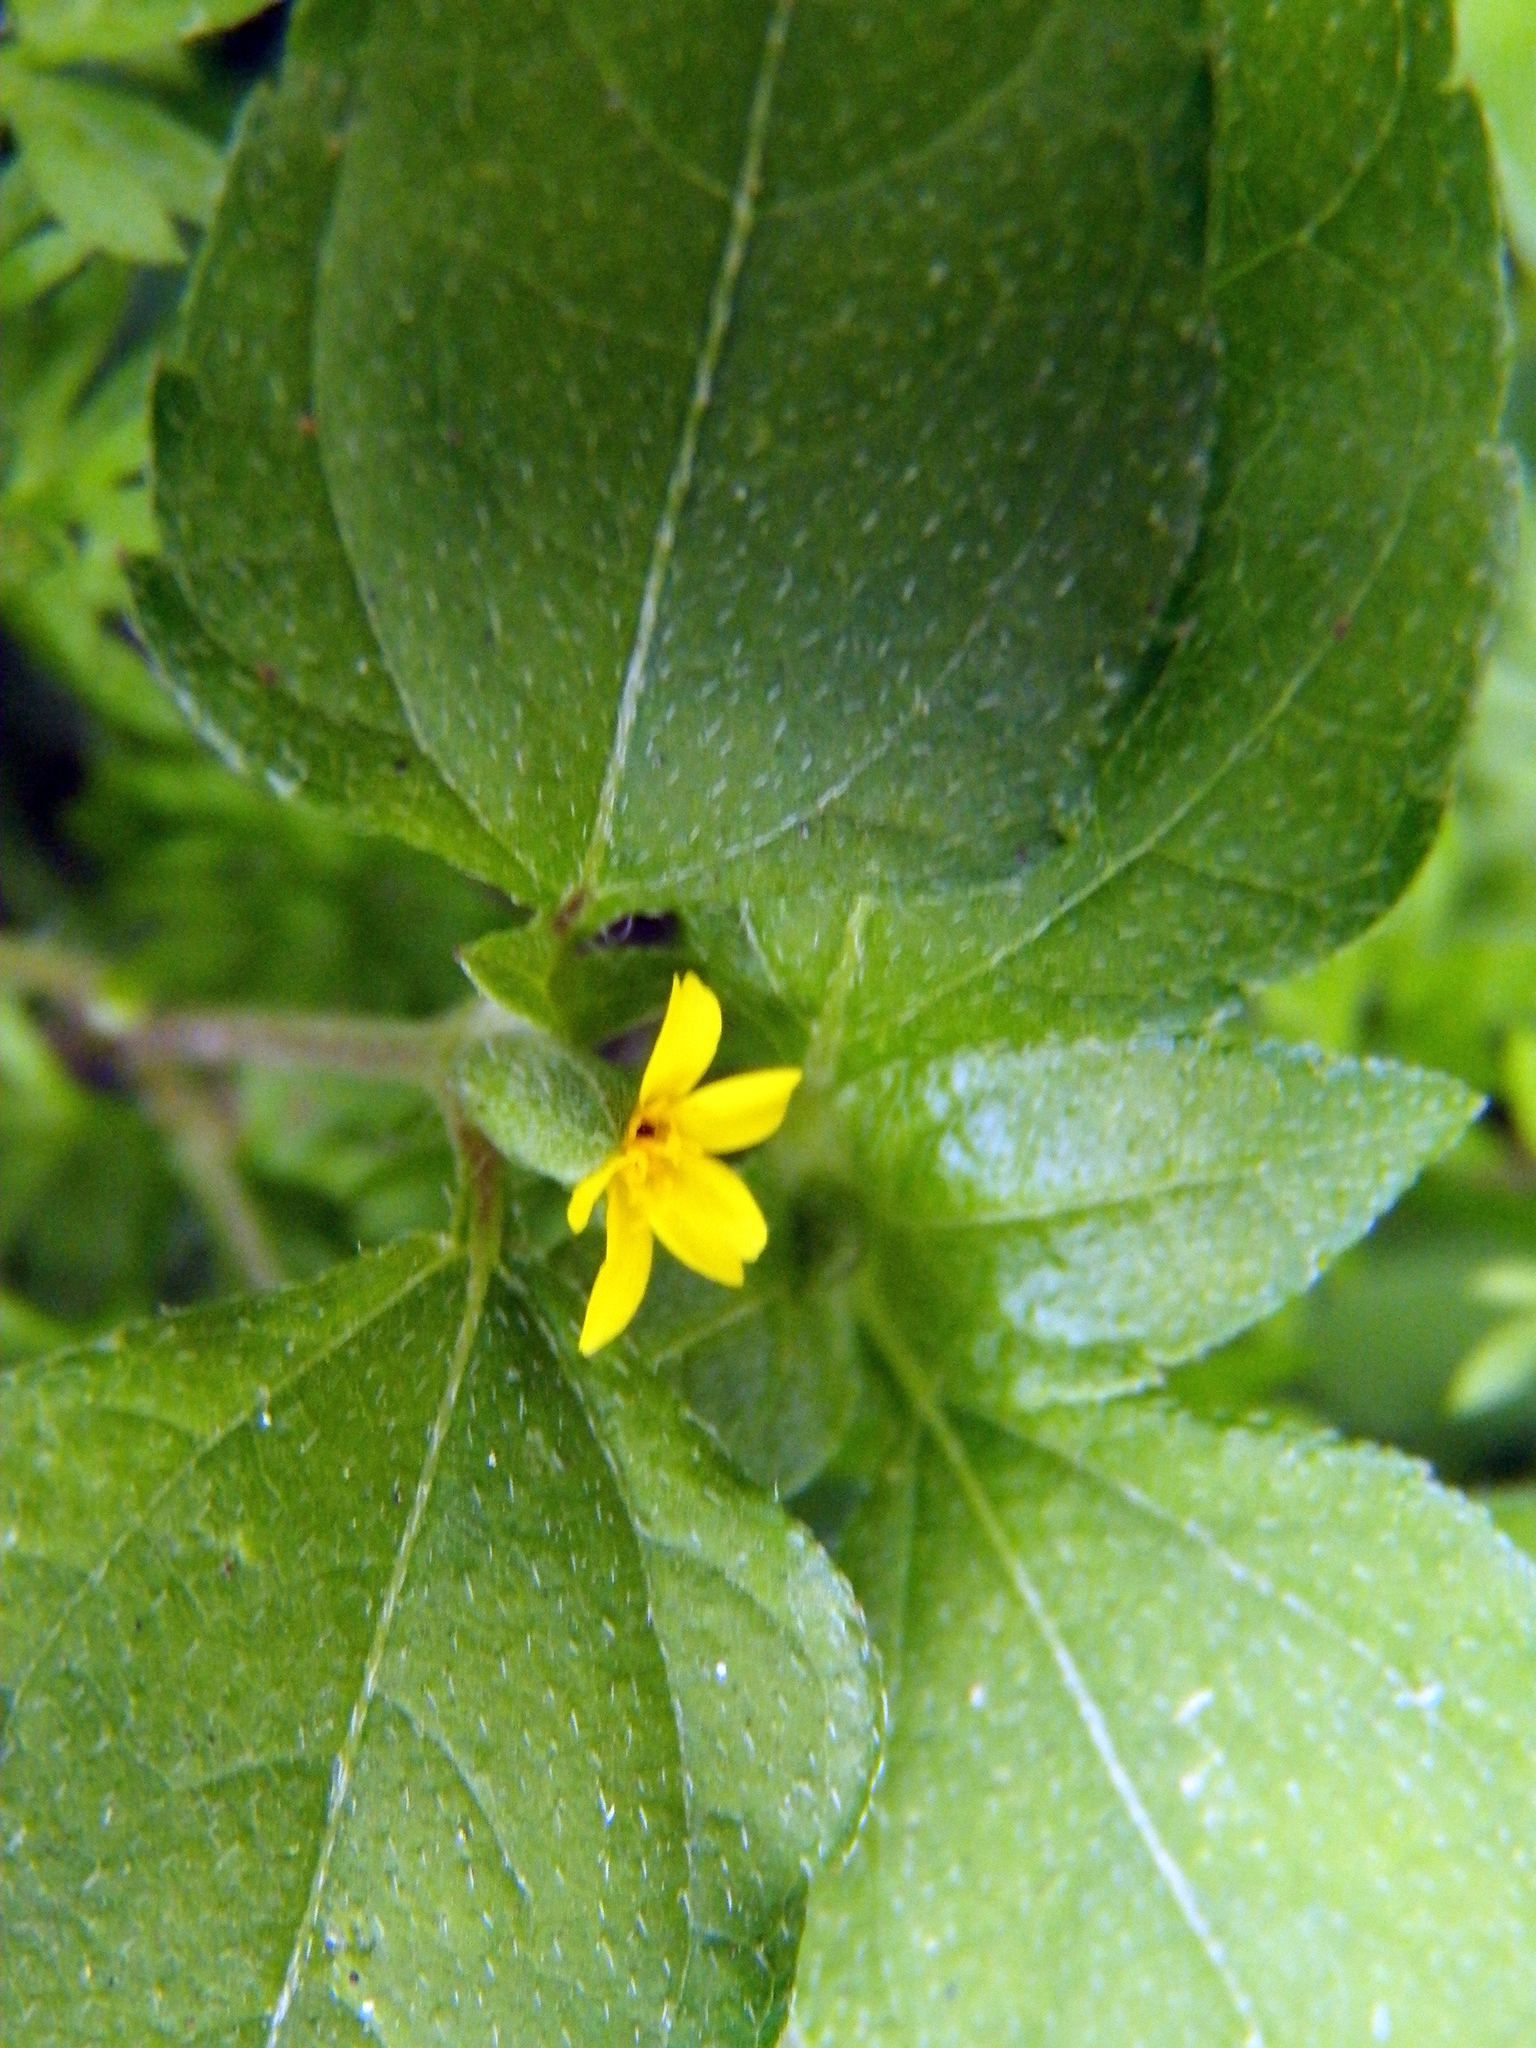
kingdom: Plantae
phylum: Tracheophyta
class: Magnoliopsida
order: Asterales
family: Asteraceae
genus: Calyptocarpus
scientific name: Calyptocarpus vialis
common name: Straggler daisy
